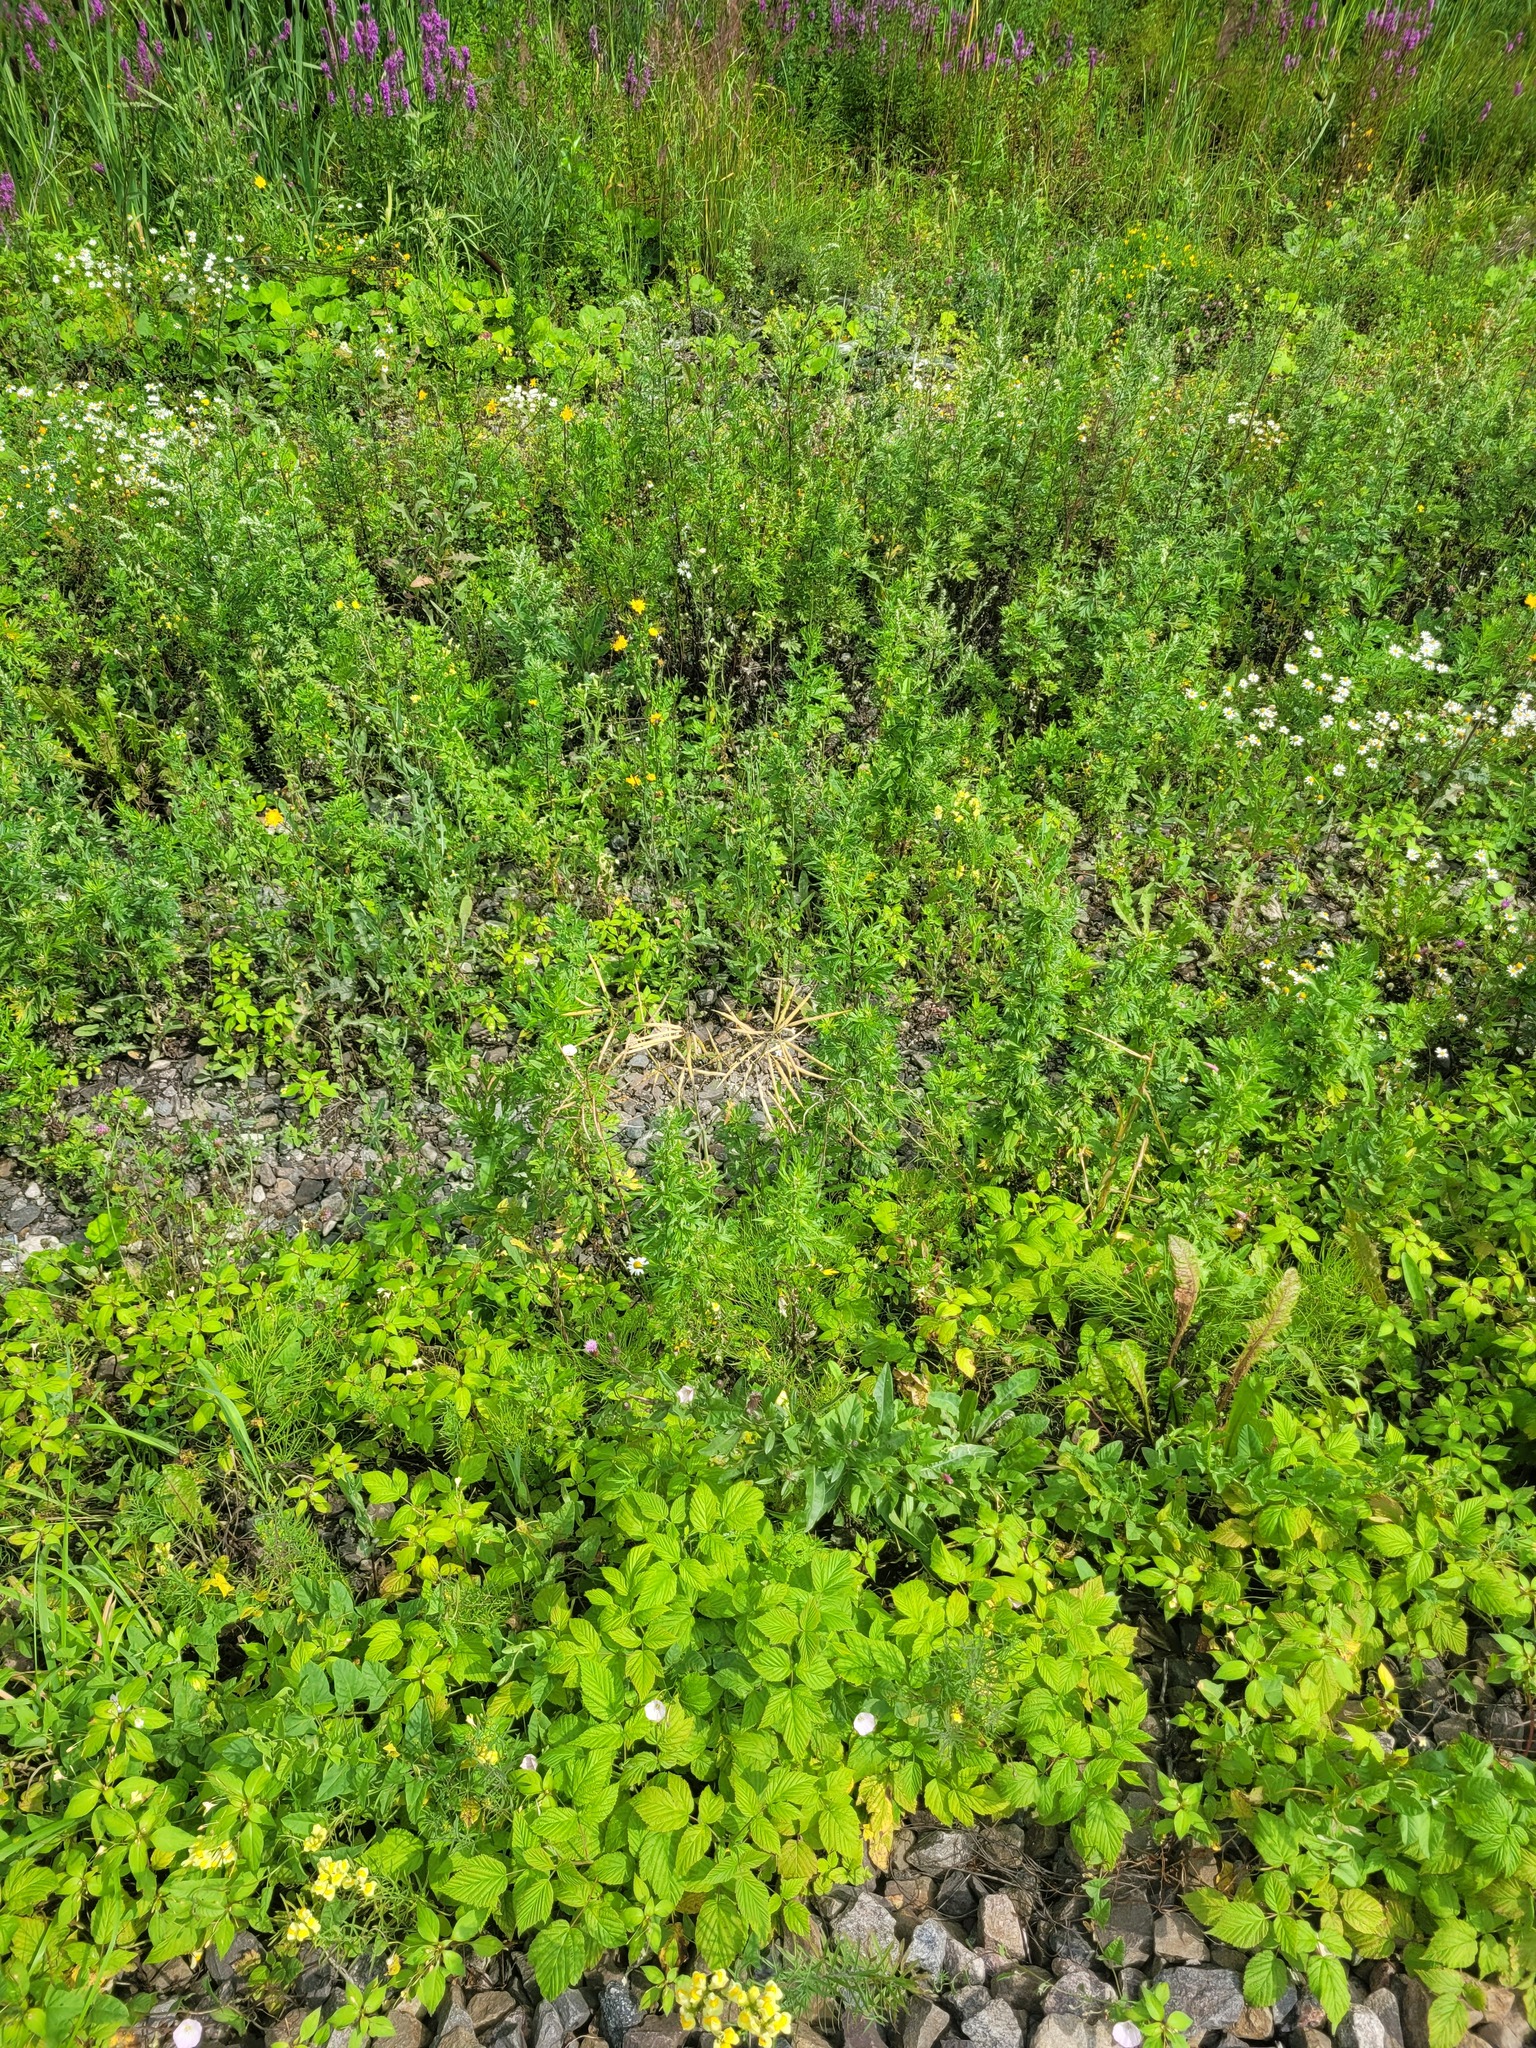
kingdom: Plantae
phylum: Tracheophyta
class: Magnoliopsida
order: Brassicales
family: Brassicaceae
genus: Brassica
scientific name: Brassica napus
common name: Rape
